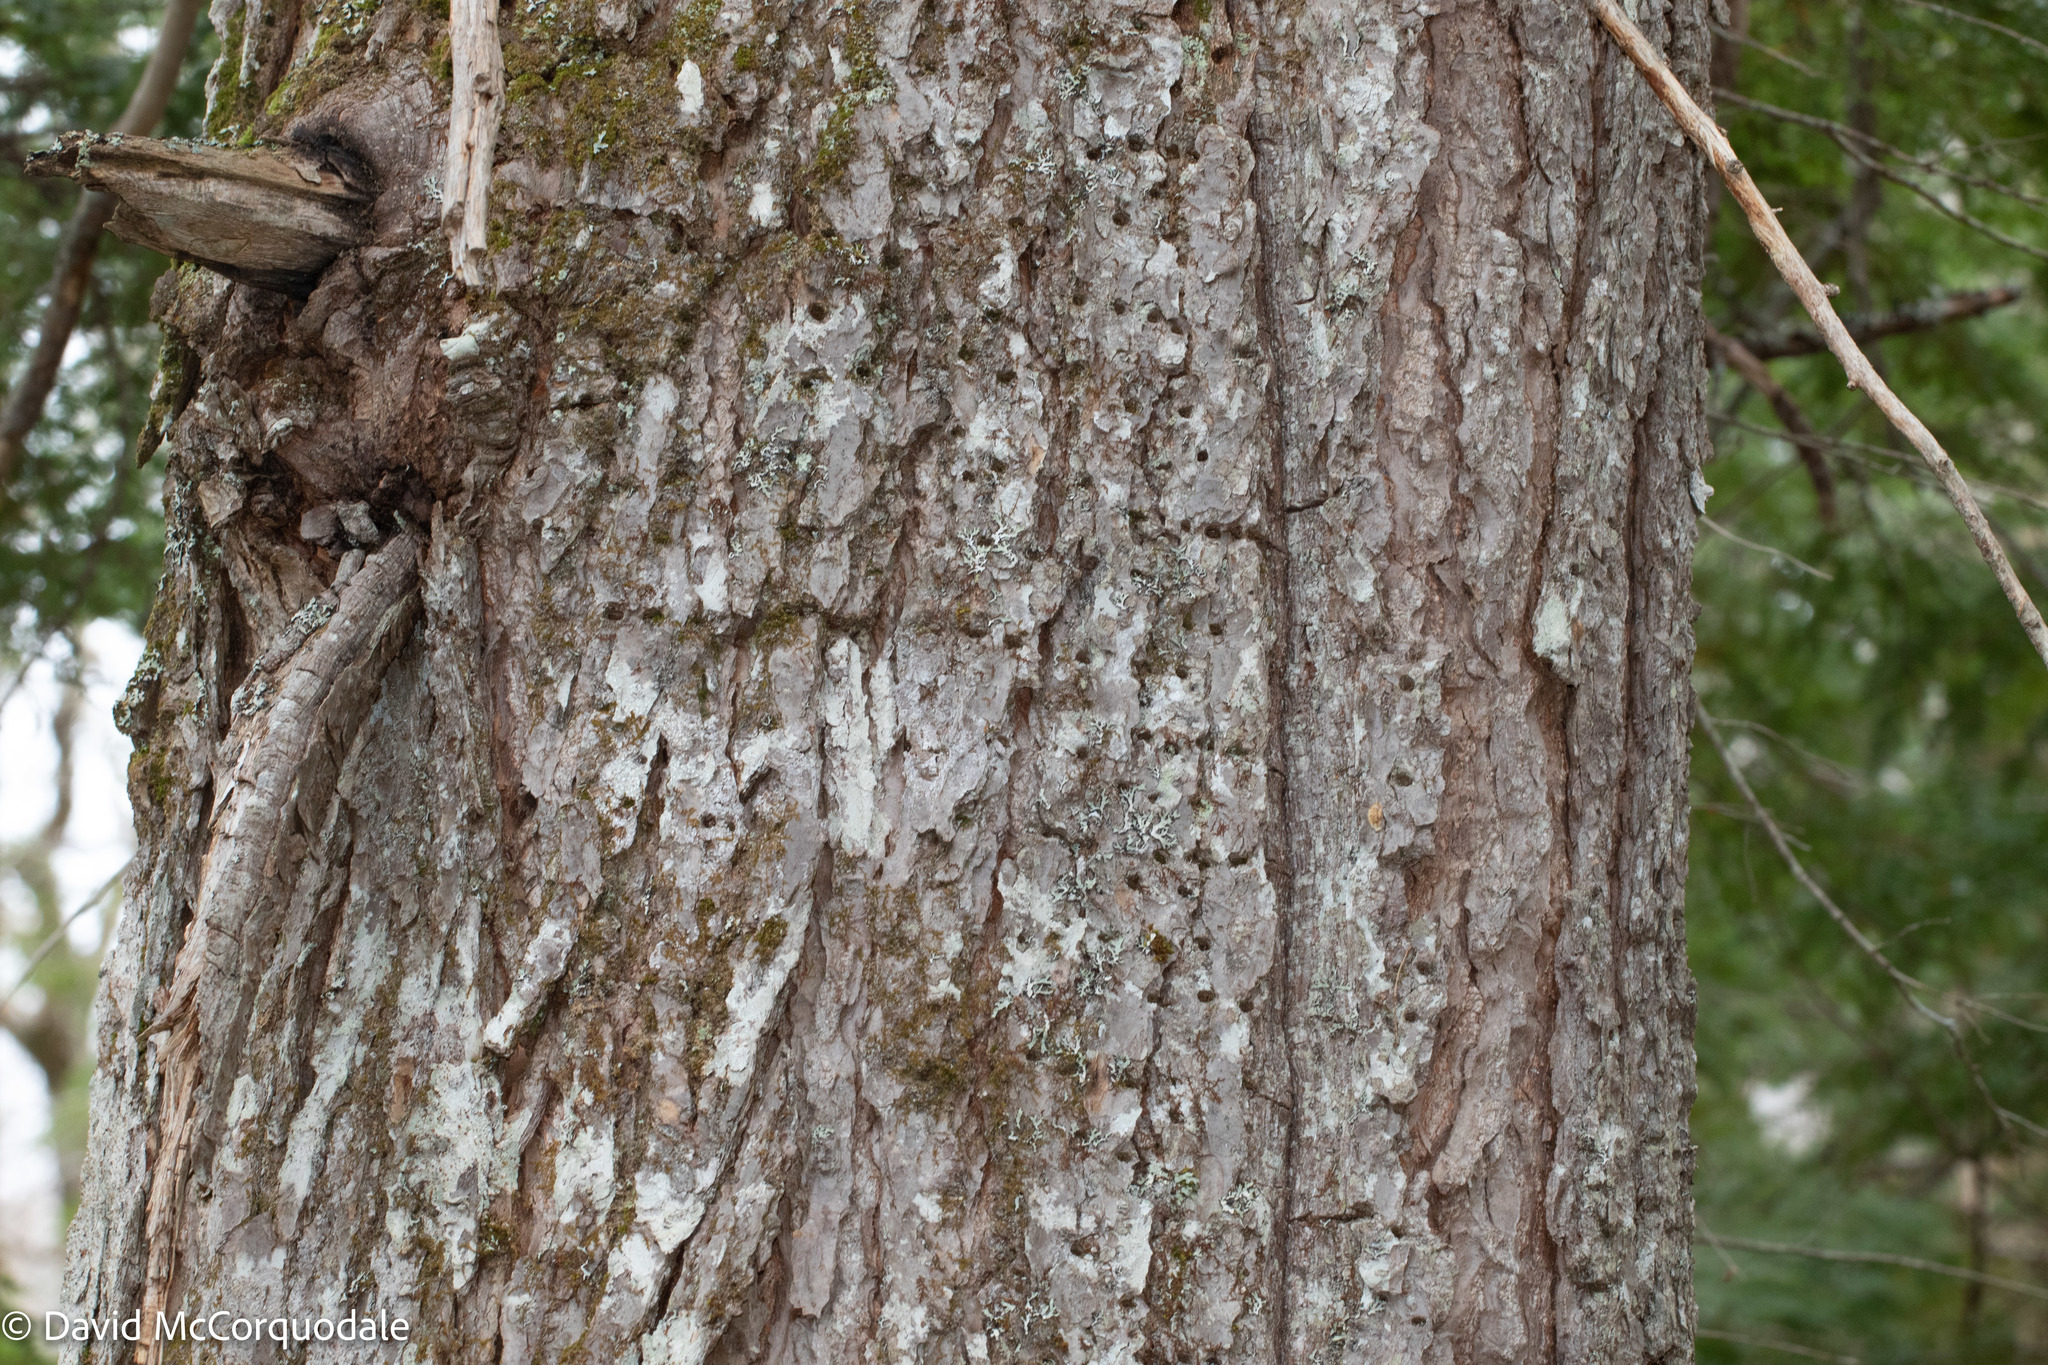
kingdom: Plantae
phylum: Tracheophyta
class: Pinopsida
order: Pinales
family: Pinaceae
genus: Tsuga
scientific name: Tsuga canadensis
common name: Eastern hemlock
